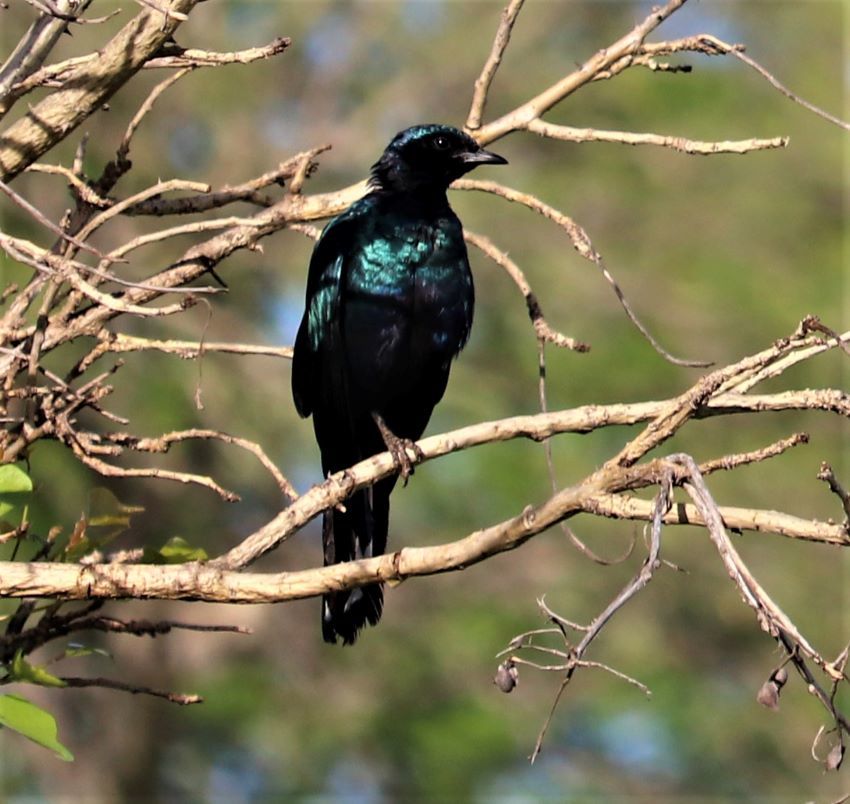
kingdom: Animalia
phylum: Chordata
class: Aves
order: Passeriformes
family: Sturnidae
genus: Lamprotornis
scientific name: Lamprotornis australis
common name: Burchell's starling
